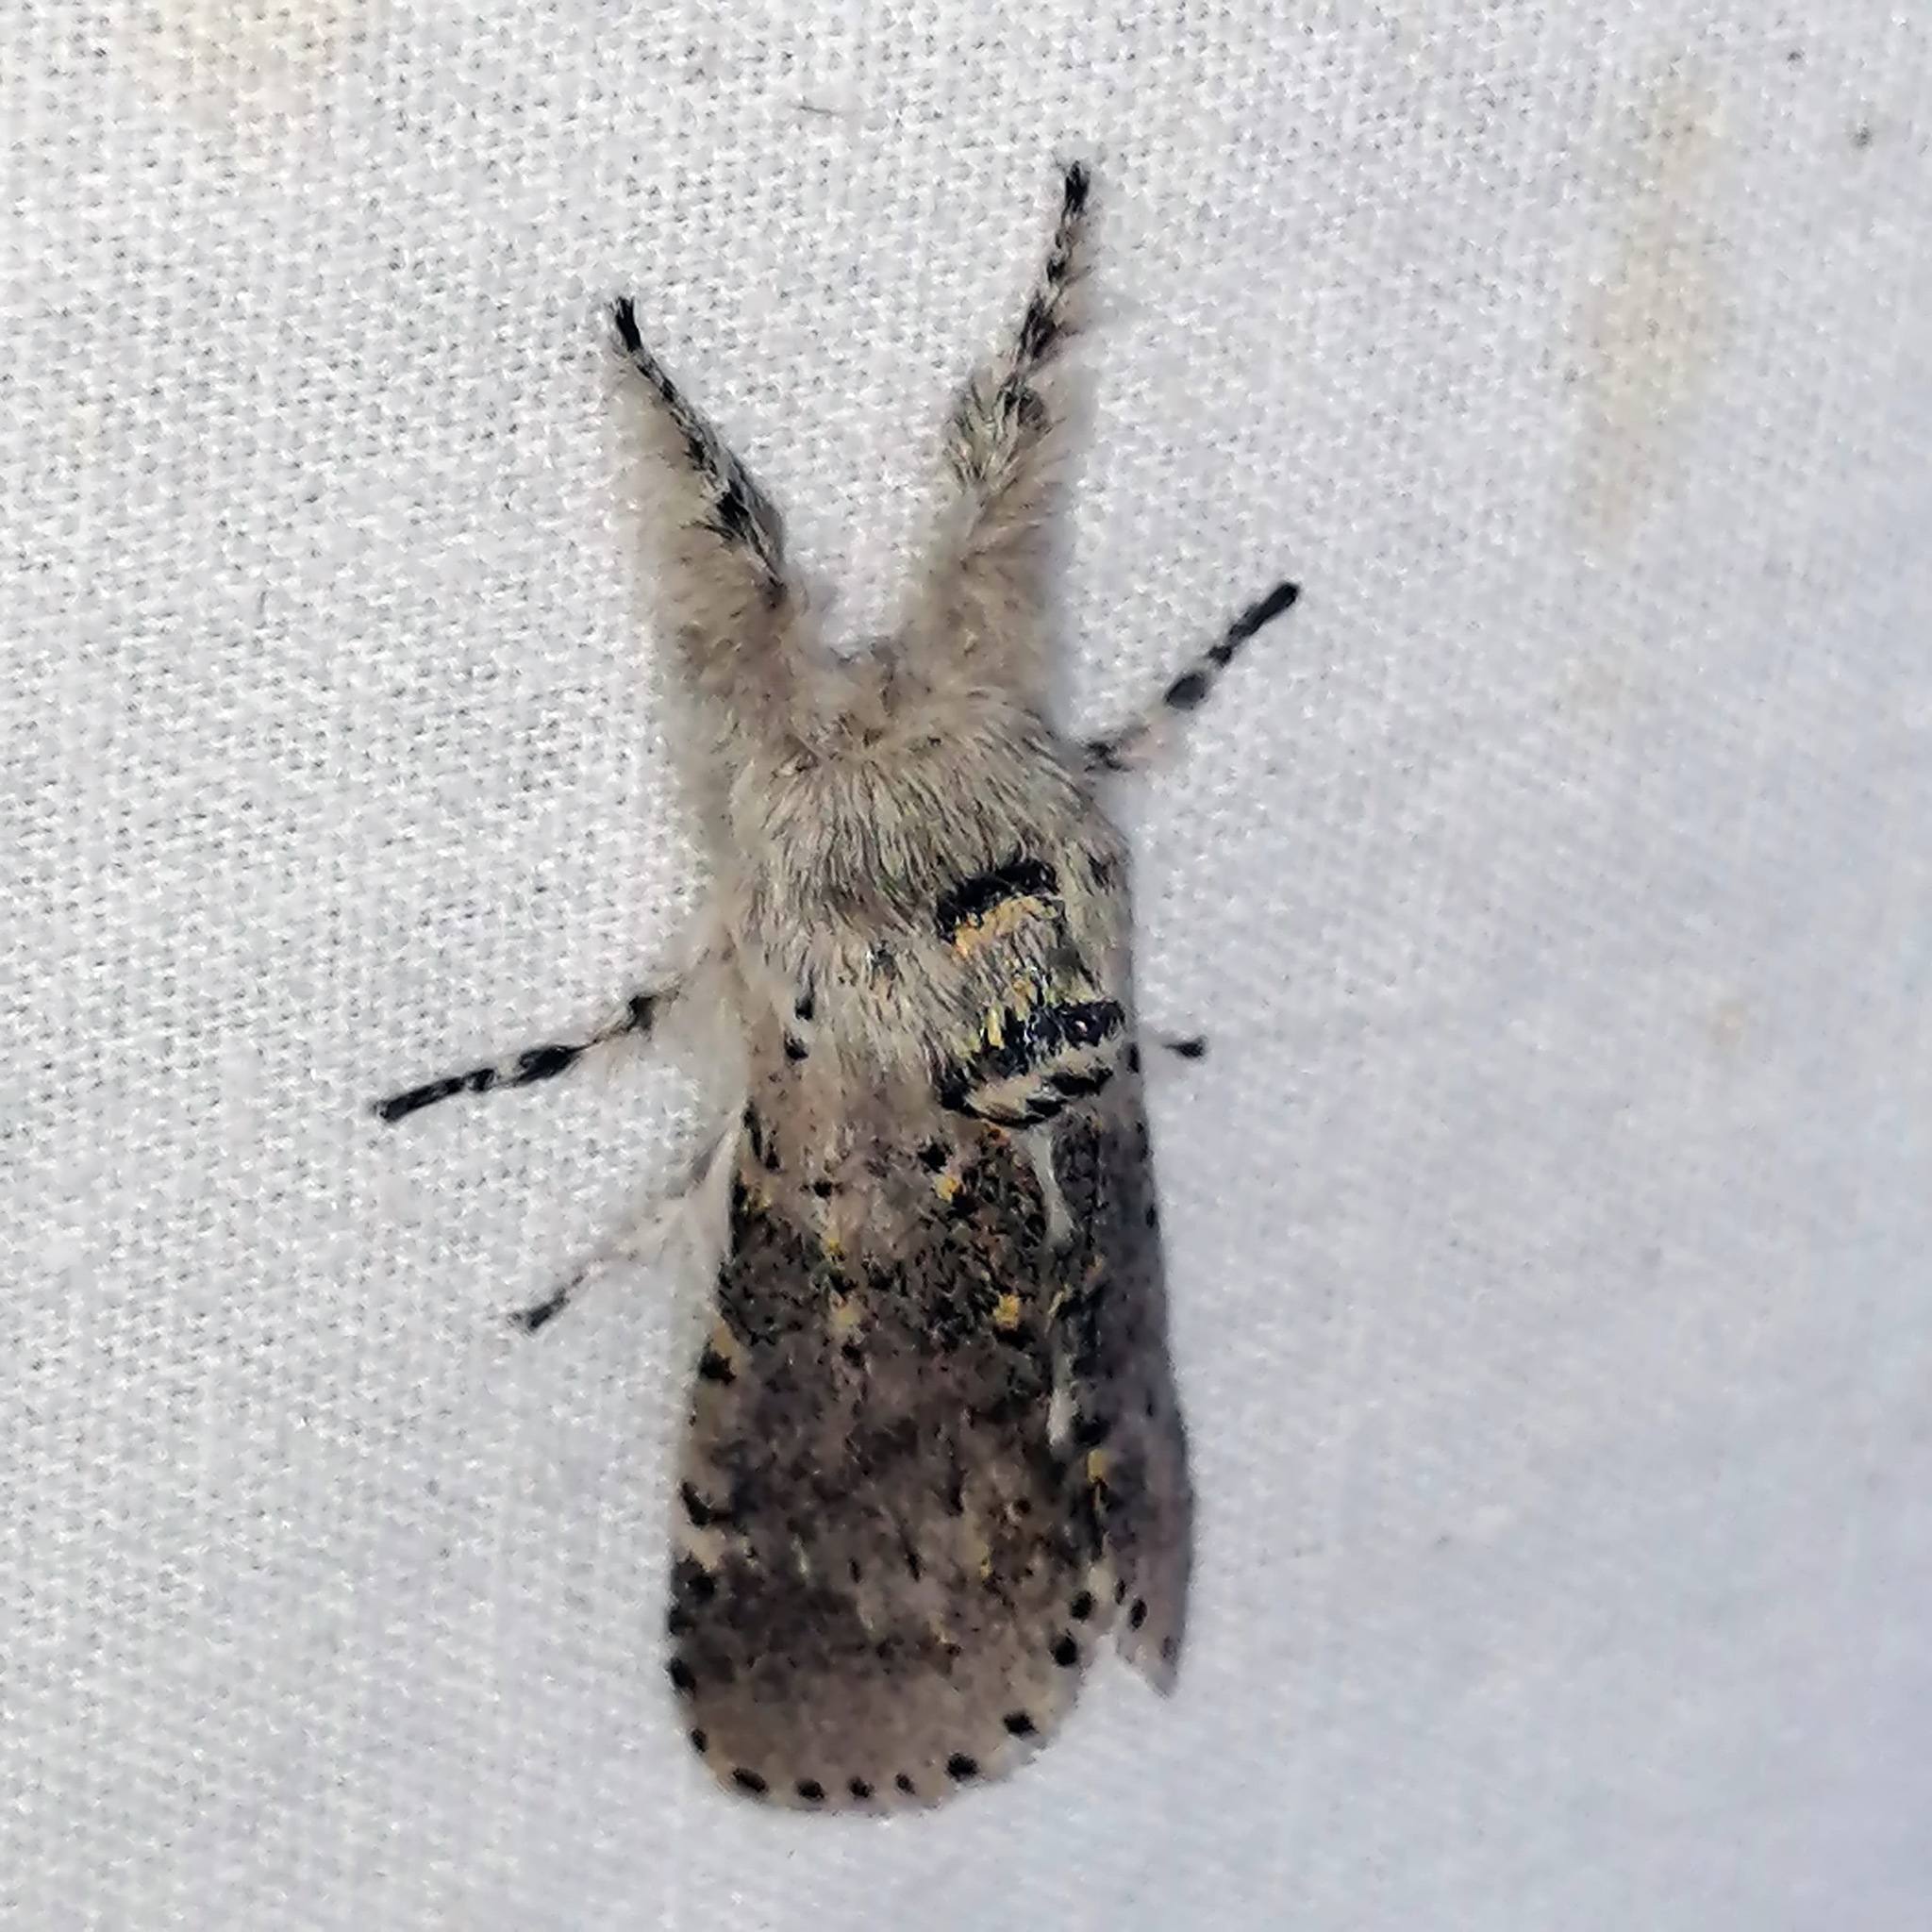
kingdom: Animalia
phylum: Arthropoda
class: Insecta
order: Lepidoptera
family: Notodontidae
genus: Furcula
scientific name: Furcula cinerea
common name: Gray furcula
